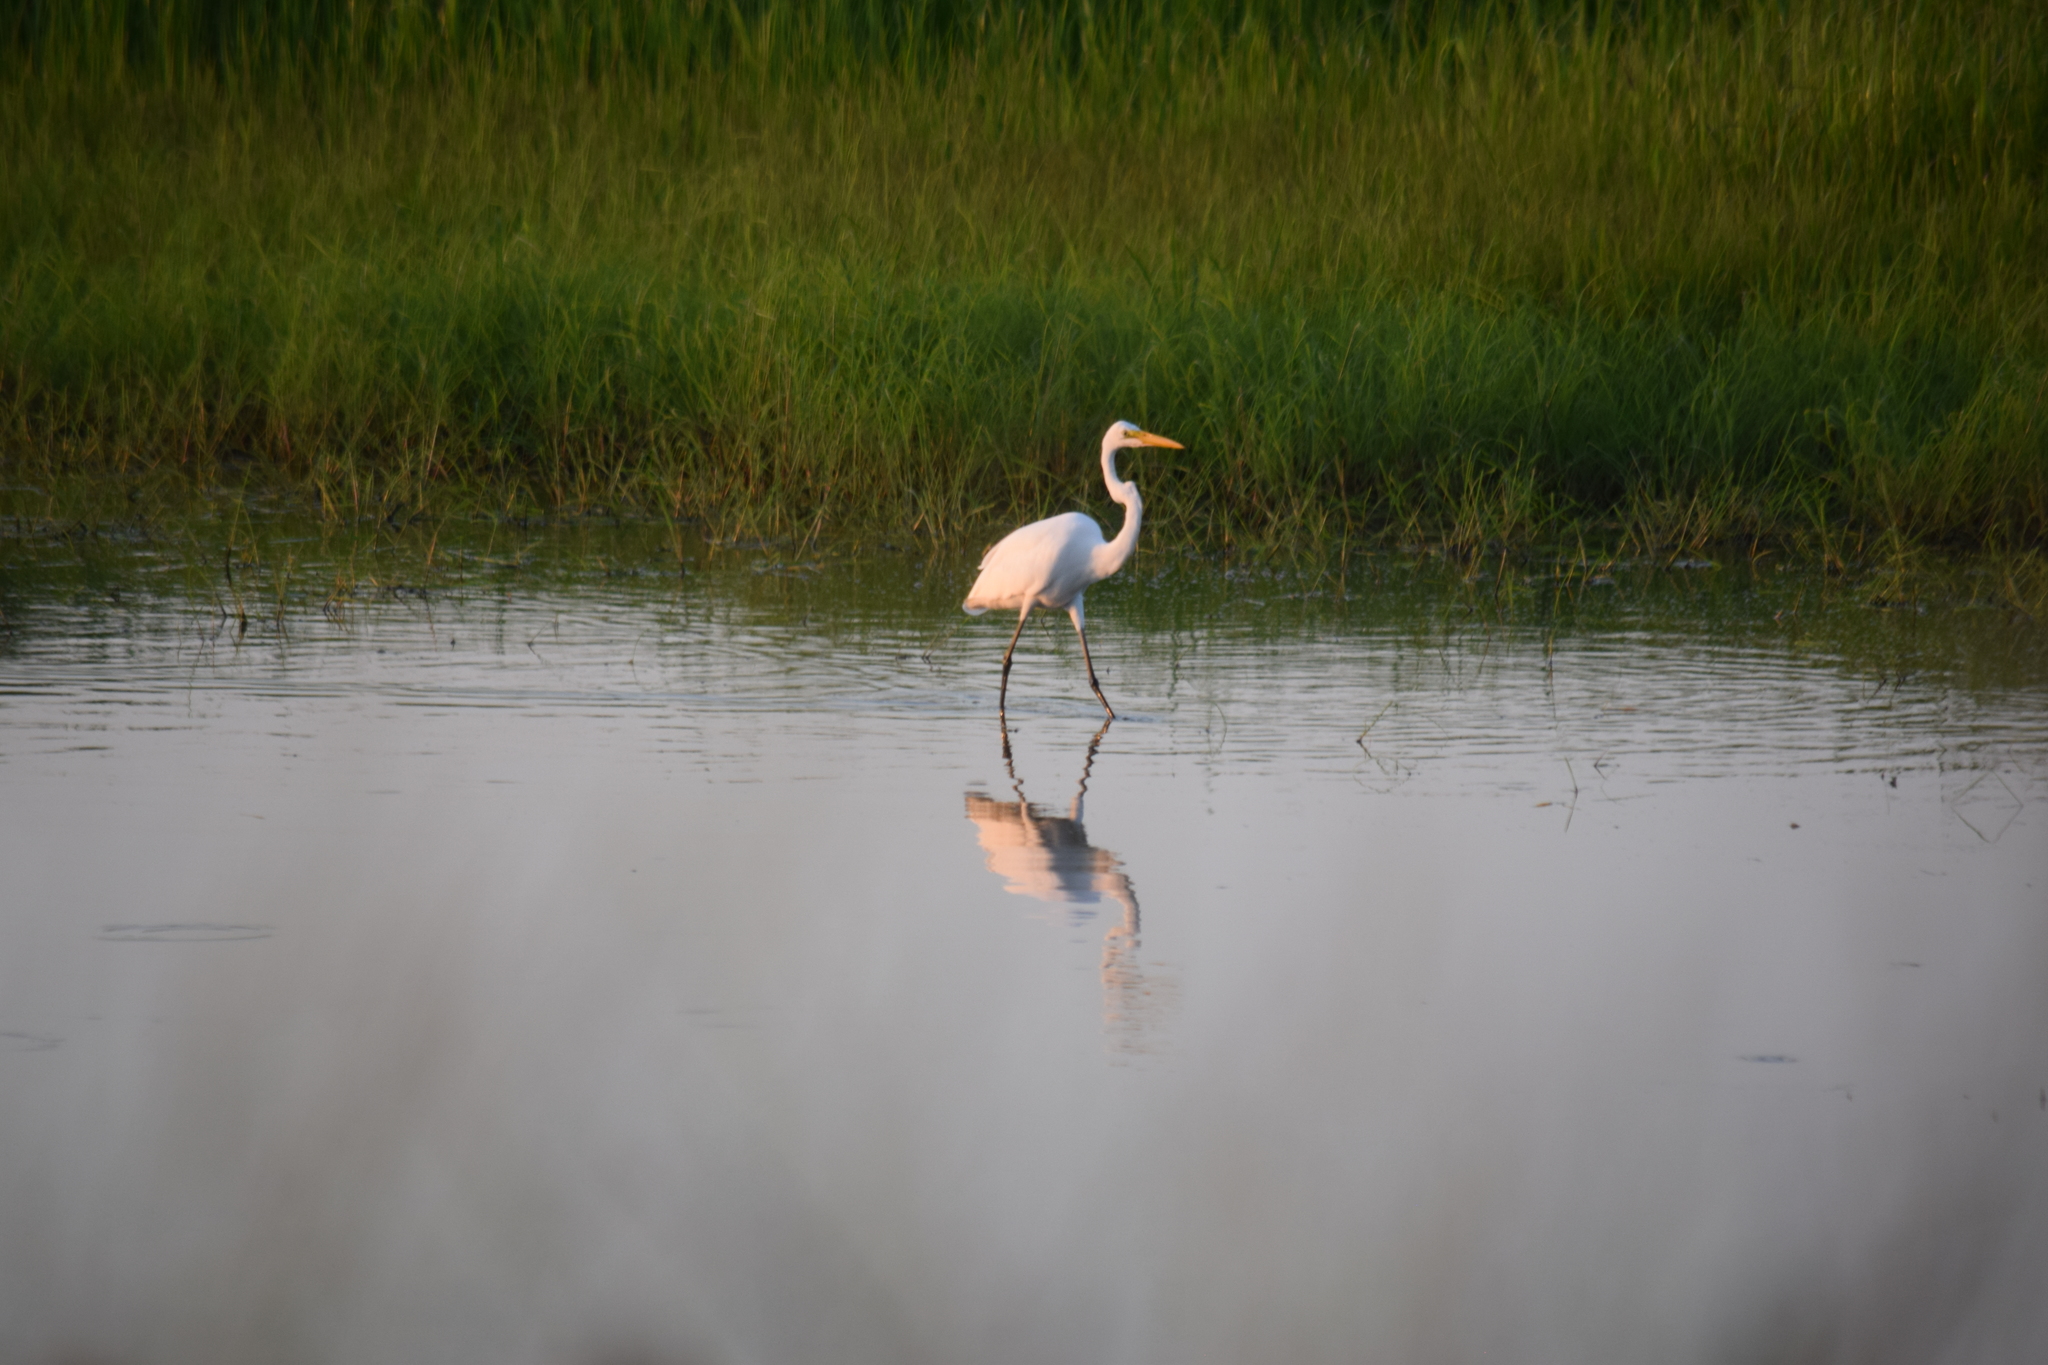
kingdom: Animalia
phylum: Chordata
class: Aves
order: Pelecaniformes
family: Ardeidae
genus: Ardea
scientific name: Ardea alba
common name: Great egret
